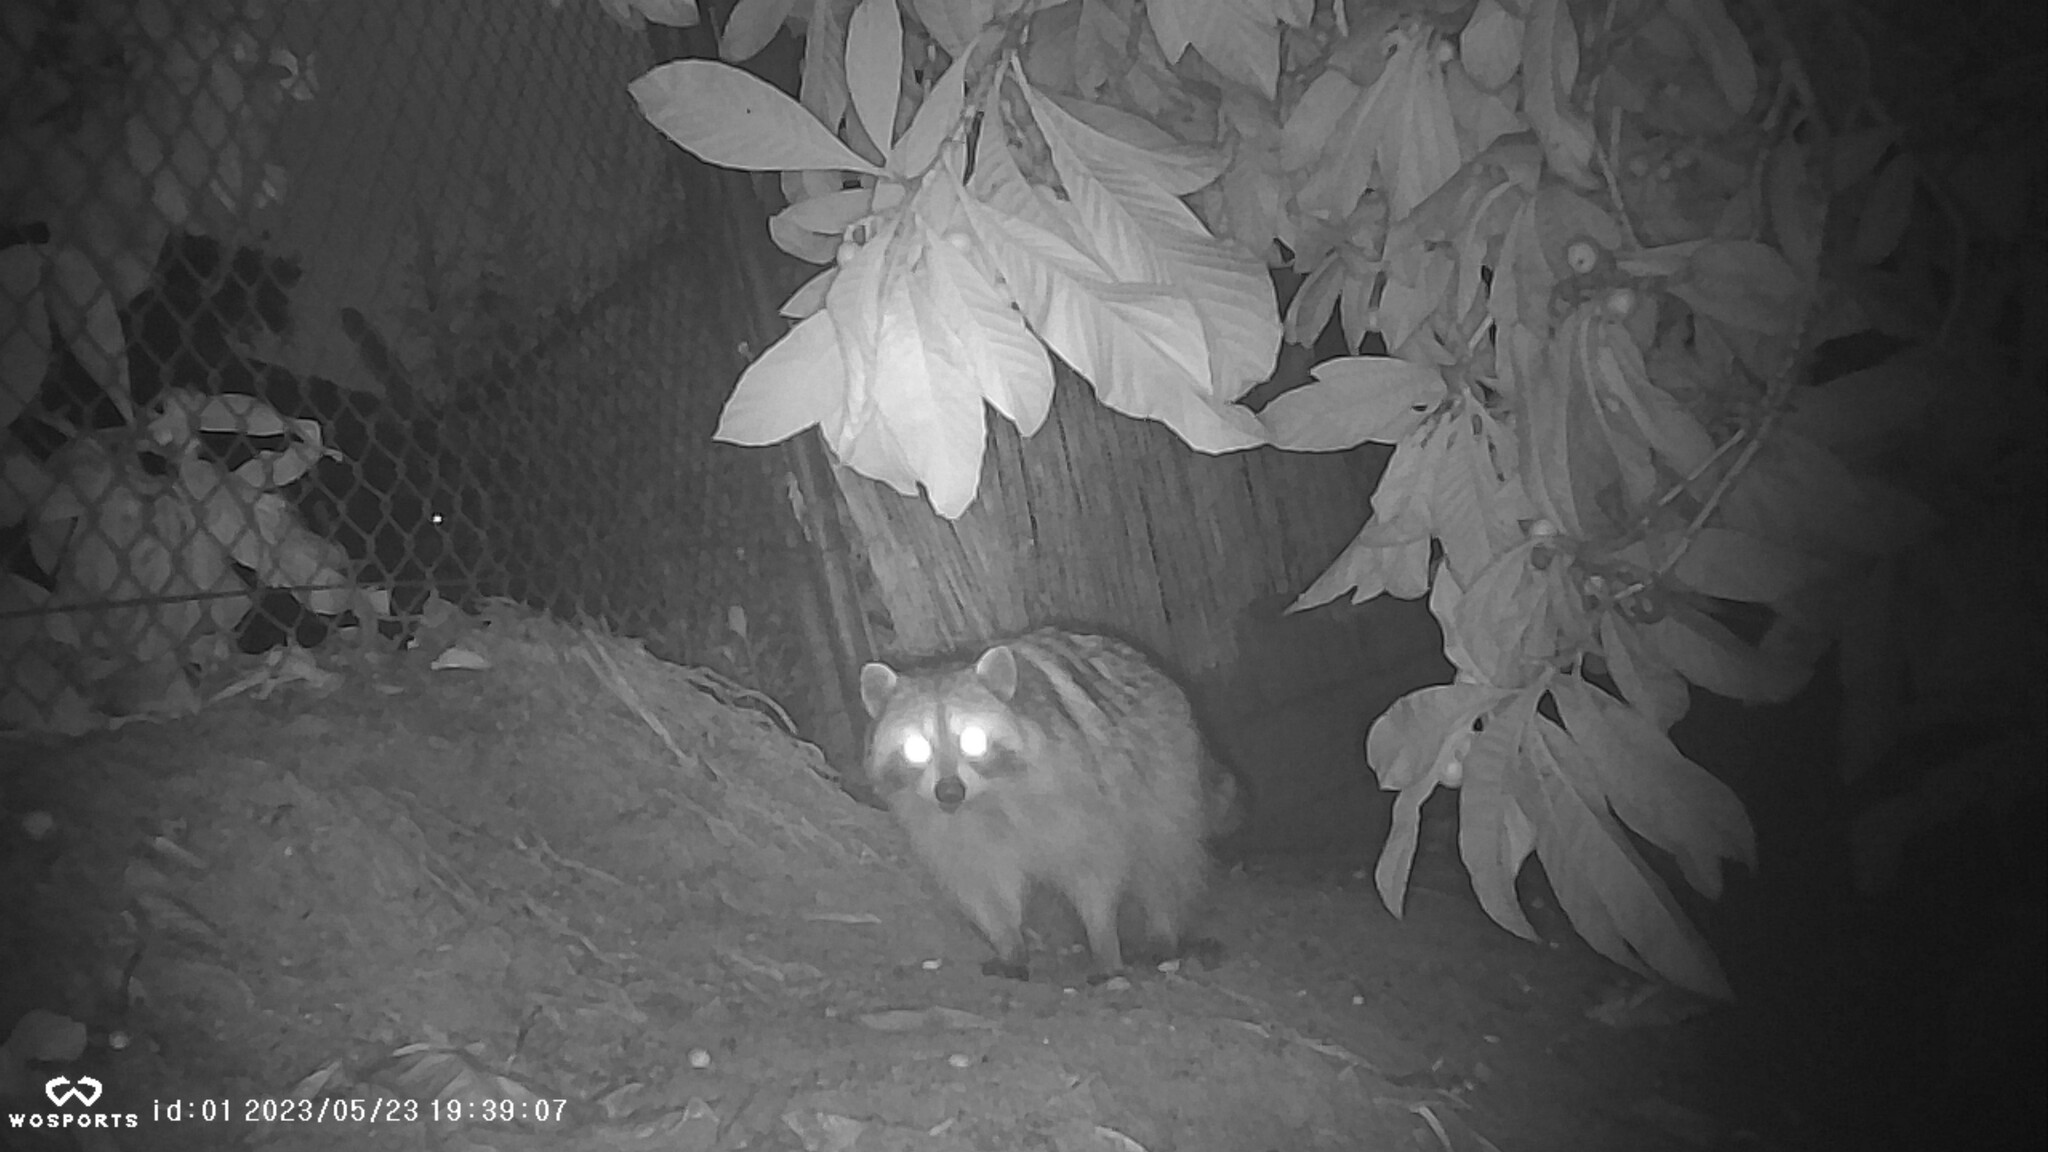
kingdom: Animalia
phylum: Chordata
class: Mammalia
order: Carnivora
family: Procyonidae
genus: Procyon
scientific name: Procyon lotor
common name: Raccoon
